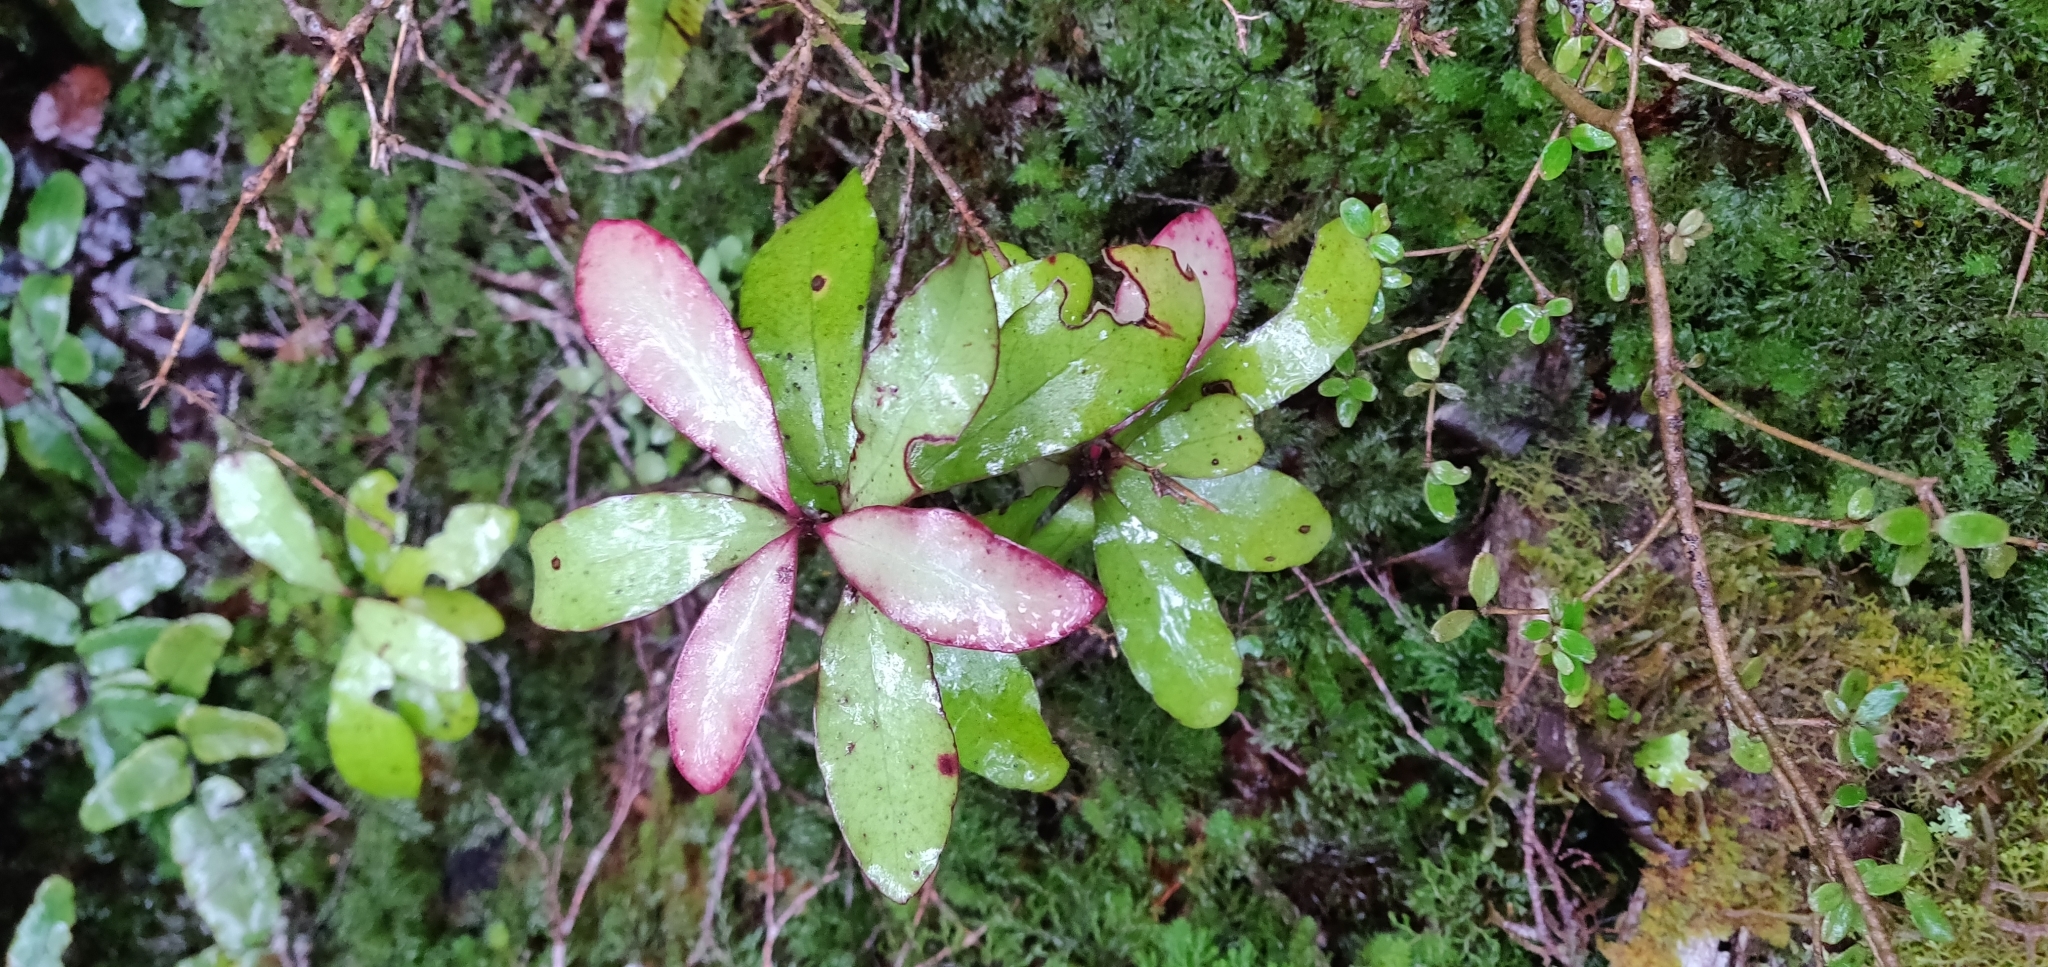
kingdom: Plantae
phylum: Tracheophyta
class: Magnoliopsida
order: Canellales
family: Winteraceae
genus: Pseudowintera
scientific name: Pseudowintera colorata
